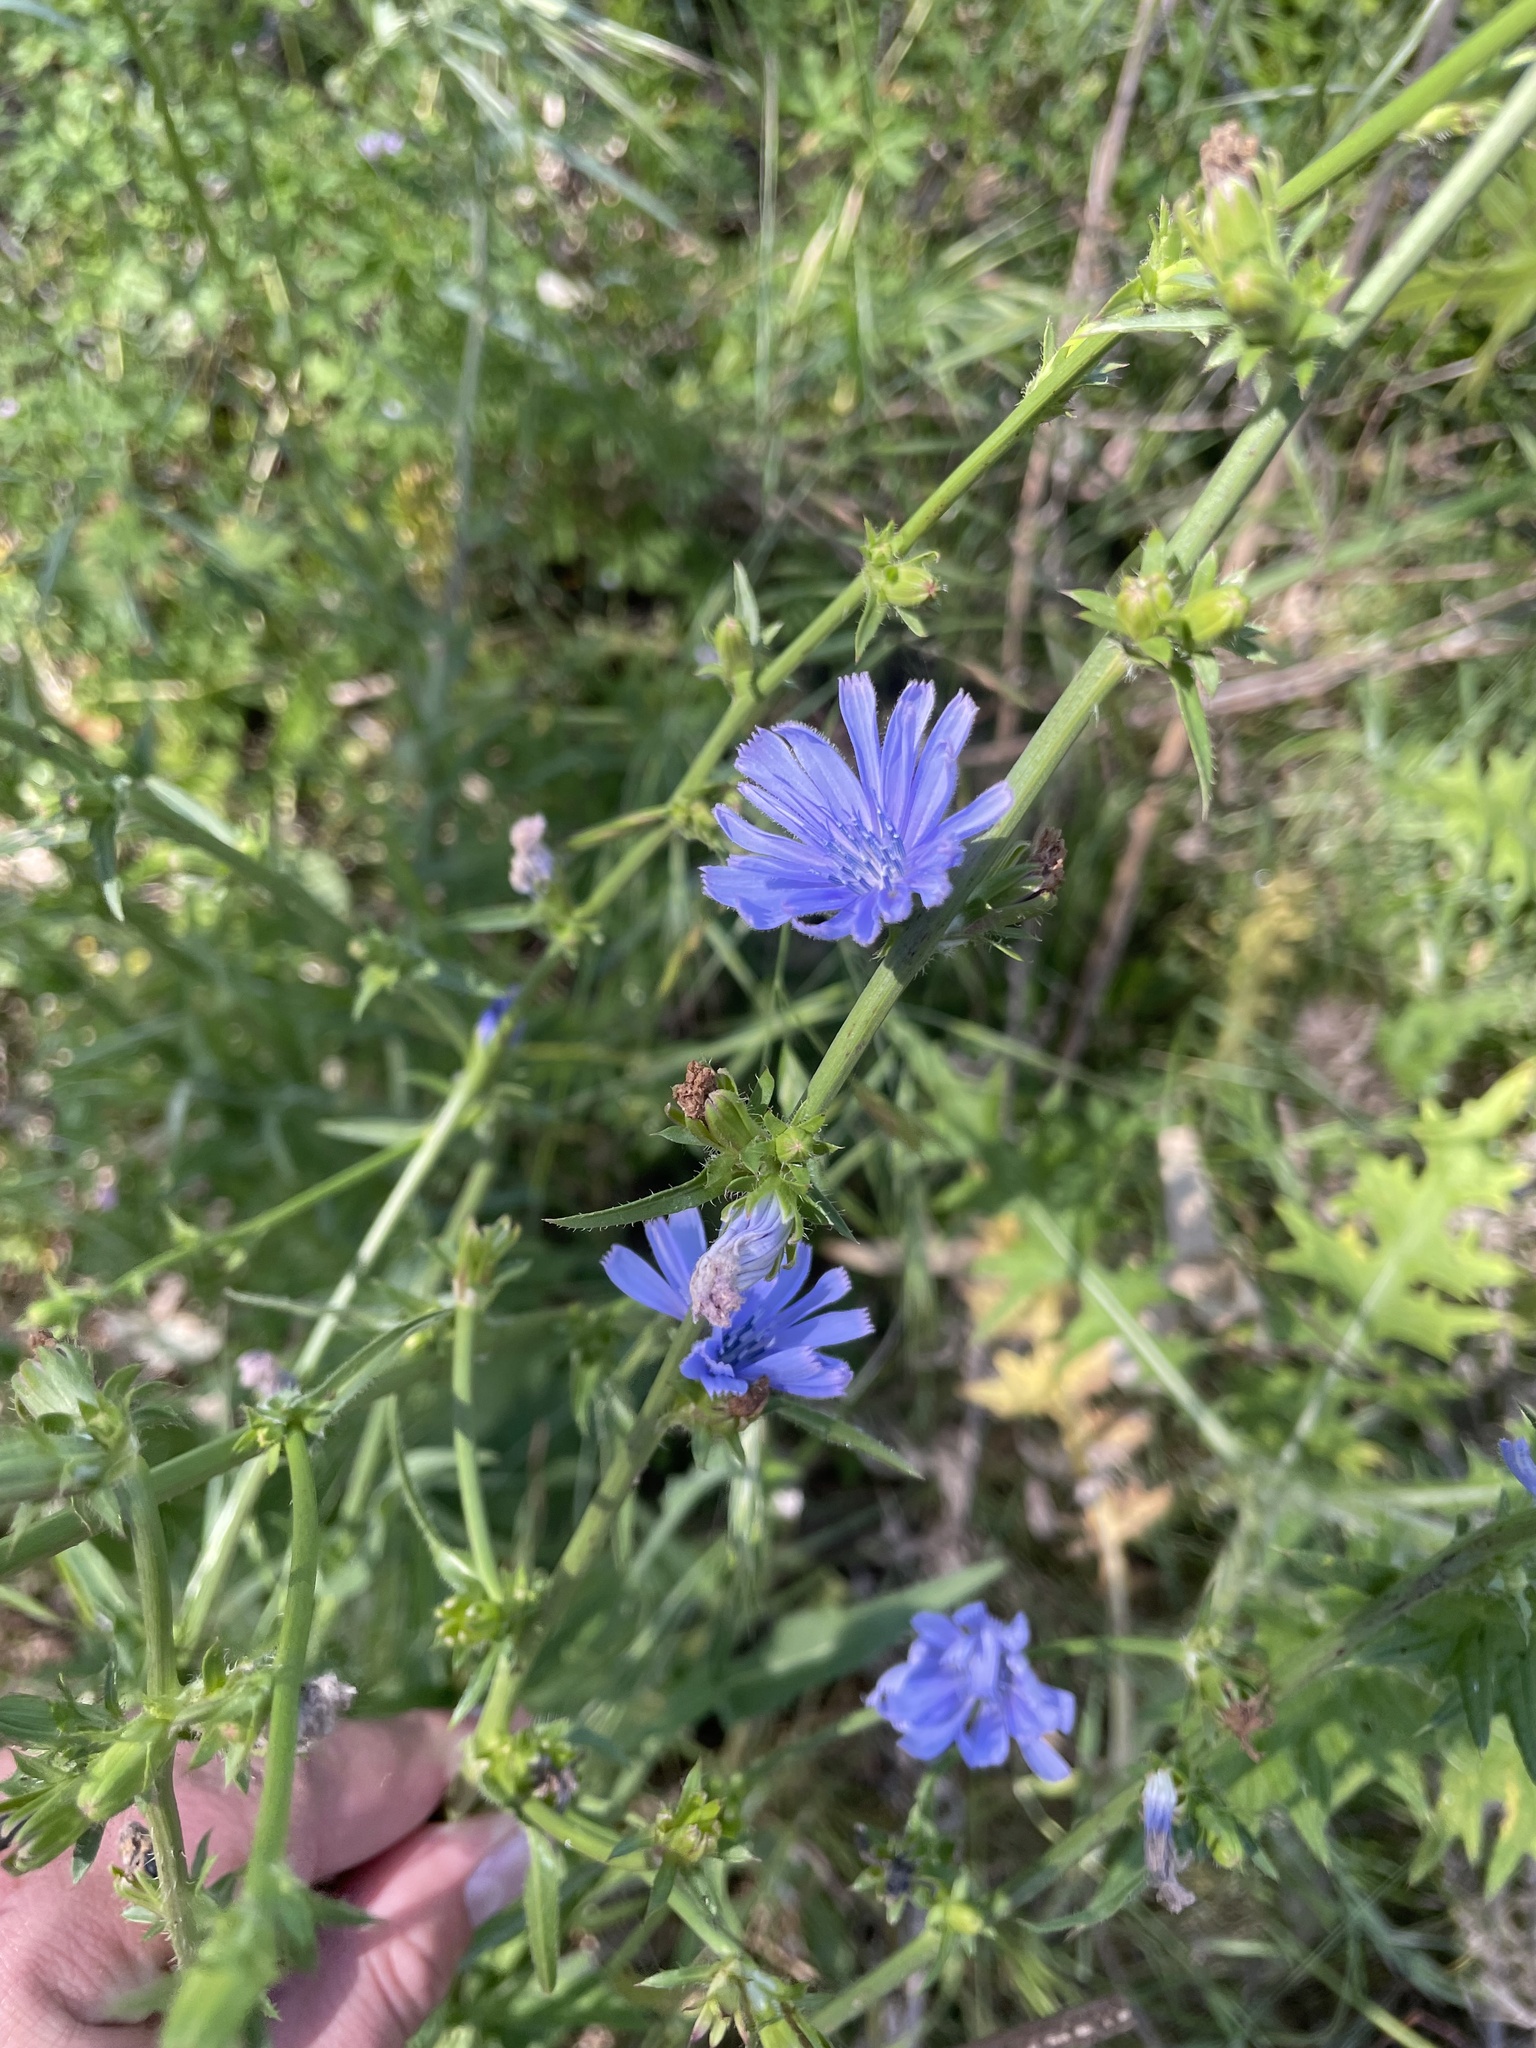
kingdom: Plantae
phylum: Tracheophyta
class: Magnoliopsida
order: Asterales
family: Asteraceae
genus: Cichorium
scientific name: Cichorium intybus
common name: Chicory
